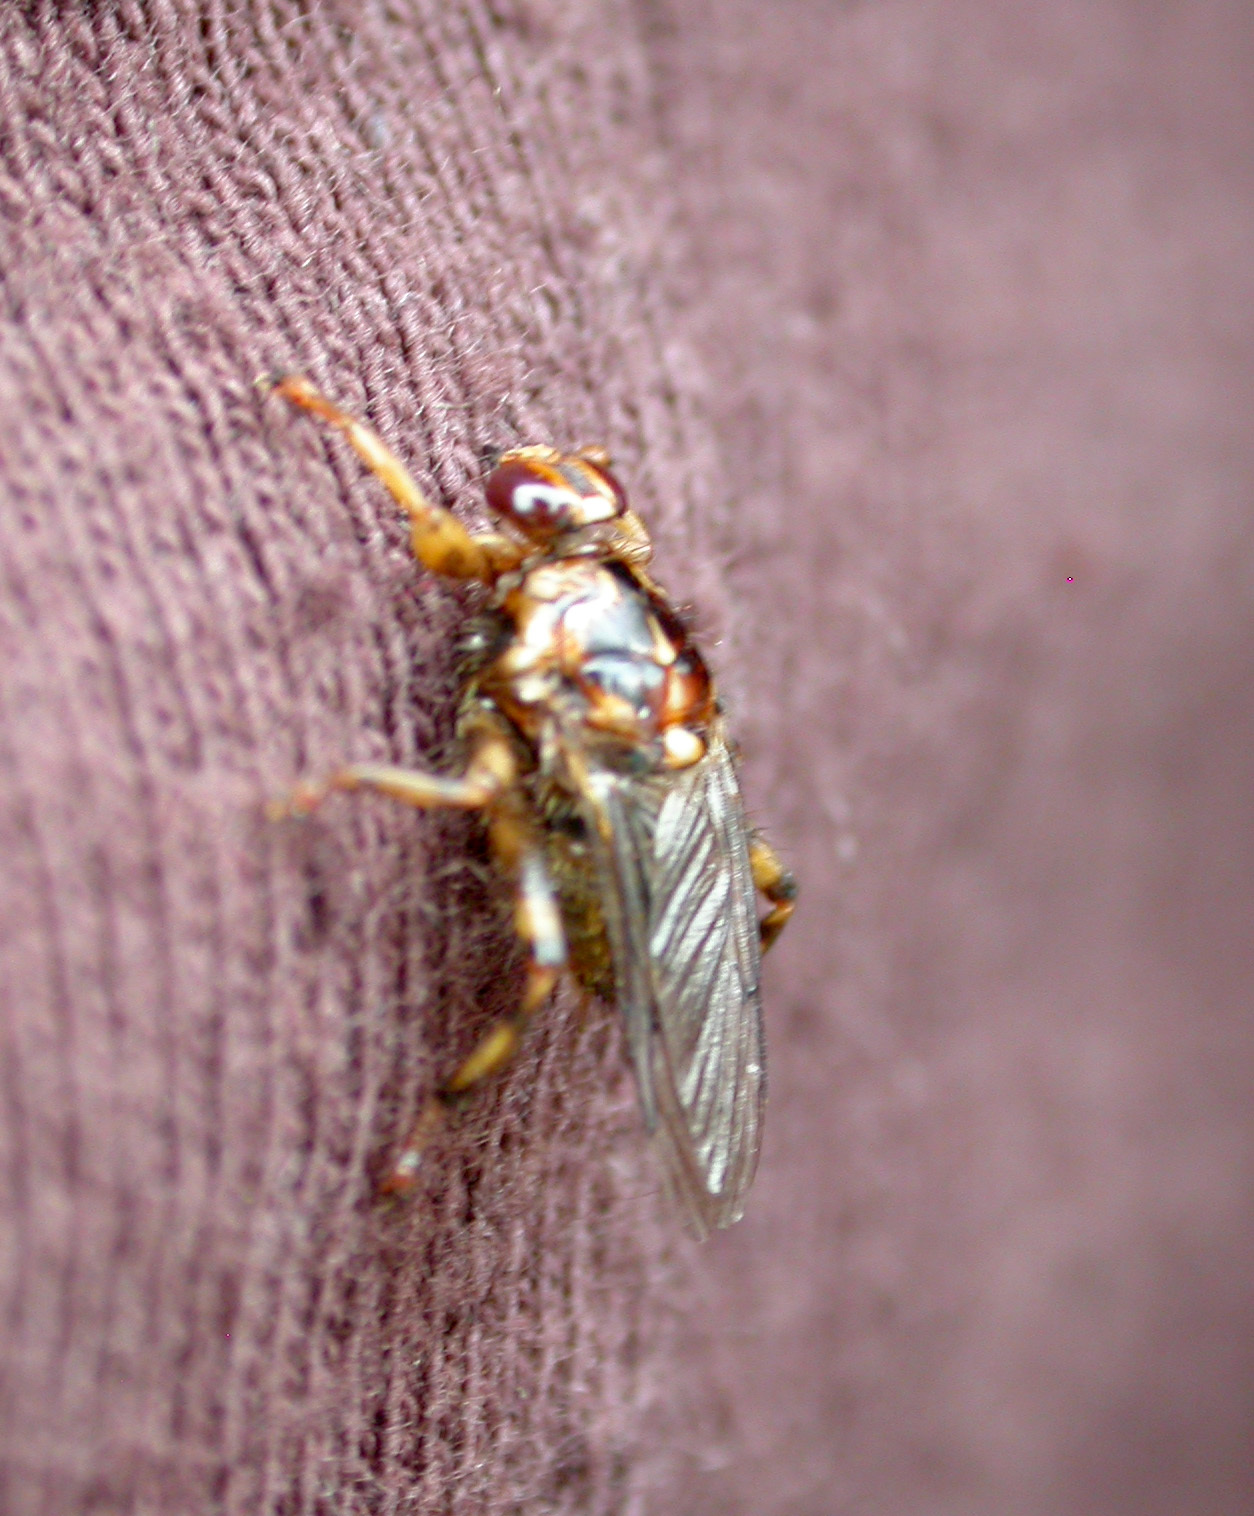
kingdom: Animalia
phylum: Arthropoda
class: Insecta
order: Diptera
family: Hippoboscidae
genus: Hippobosca
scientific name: Hippobosca equina
